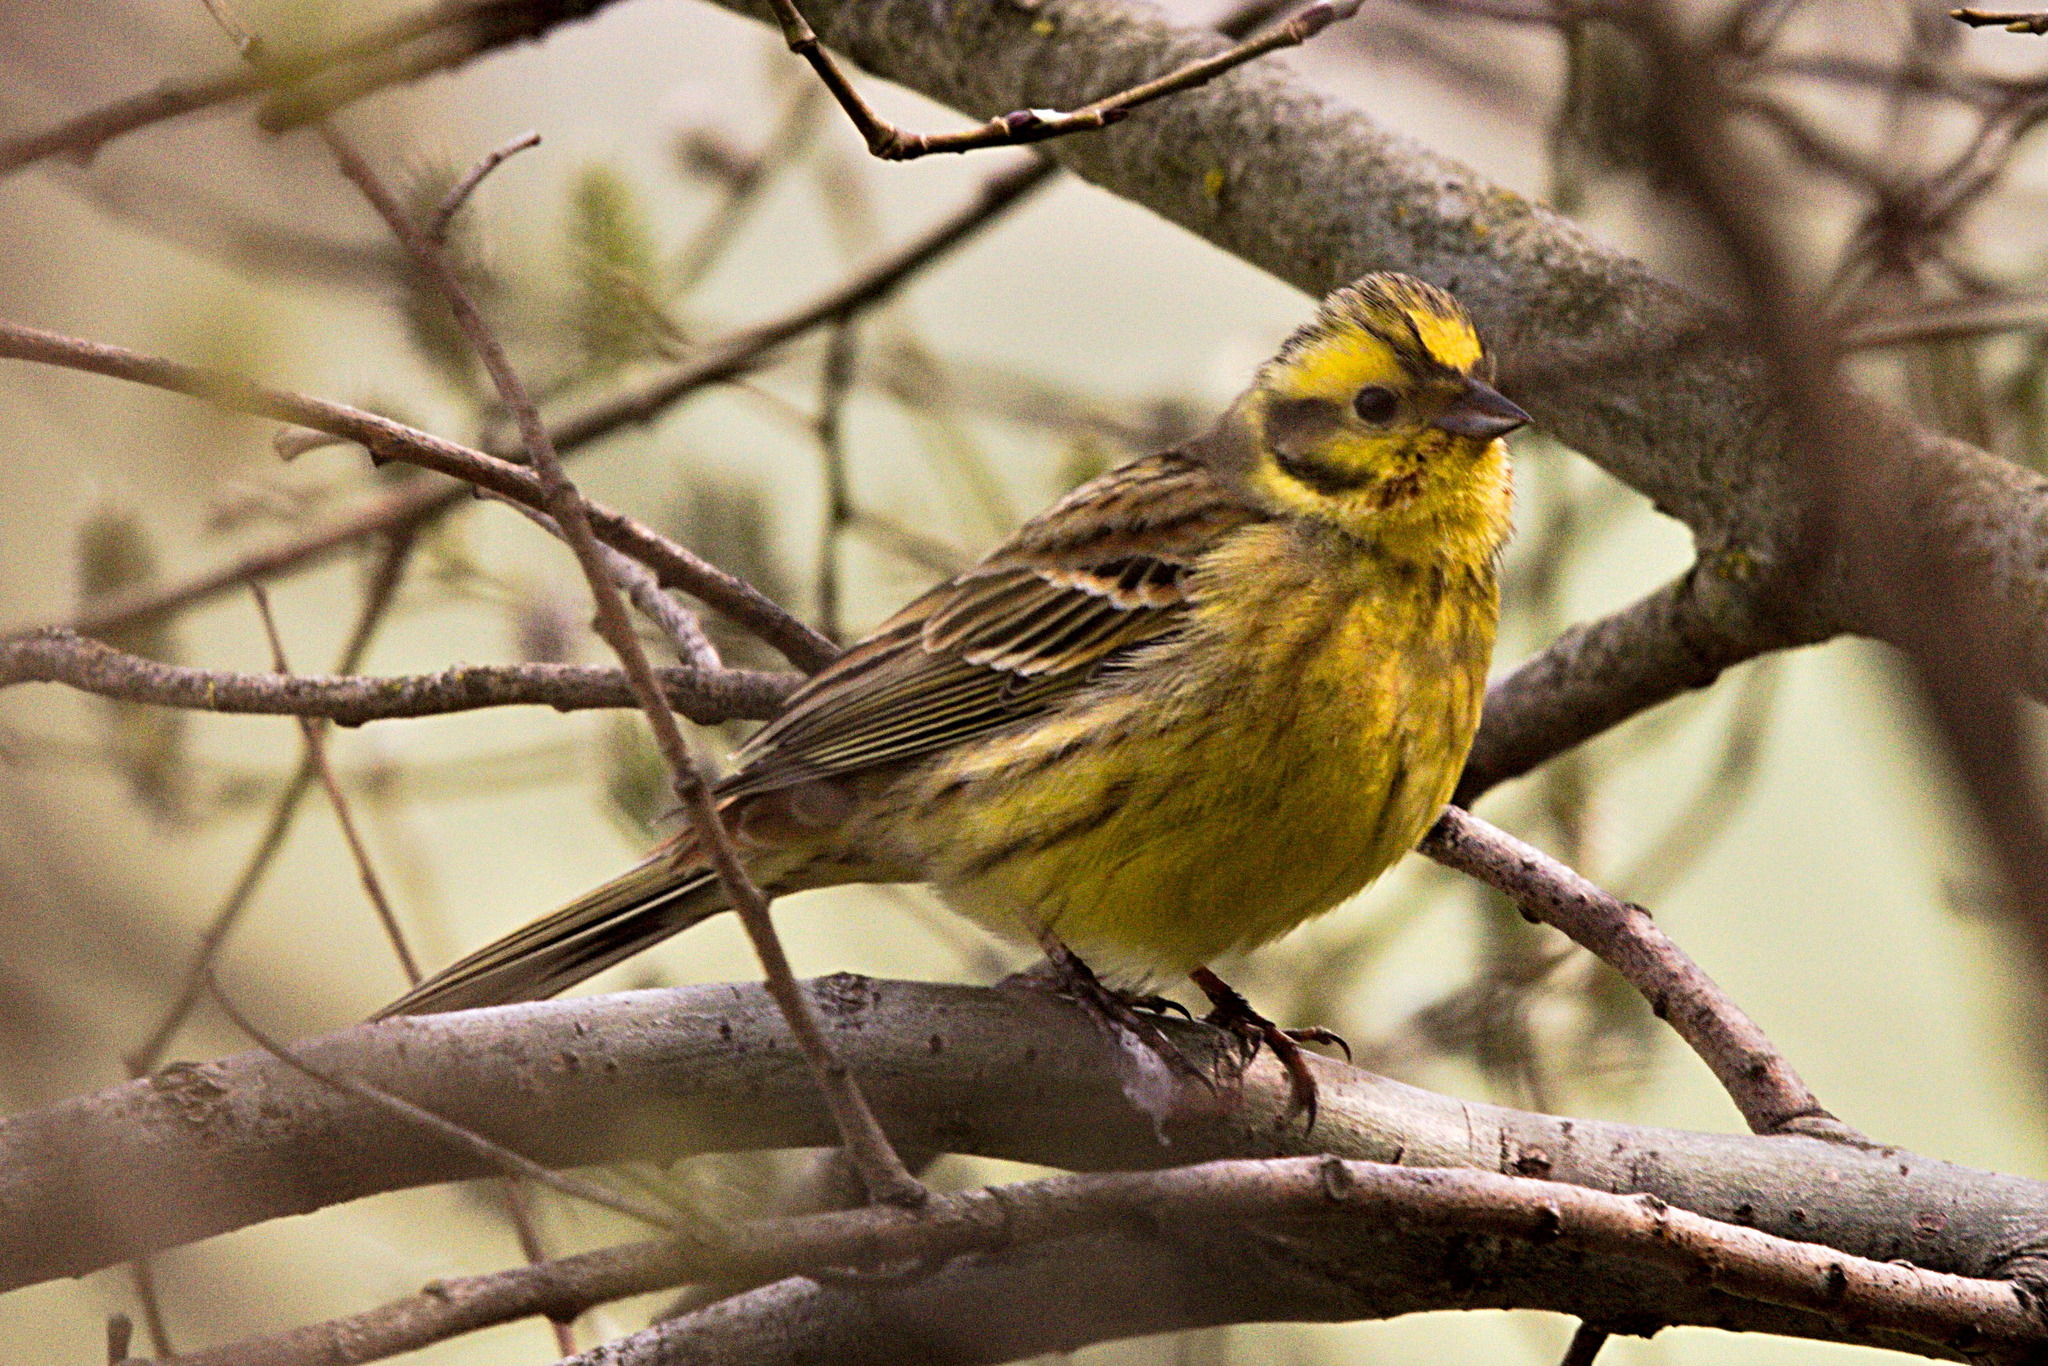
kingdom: Animalia
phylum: Chordata
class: Aves
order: Passeriformes
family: Emberizidae
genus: Emberiza
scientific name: Emberiza citrinella
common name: Yellowhammer
